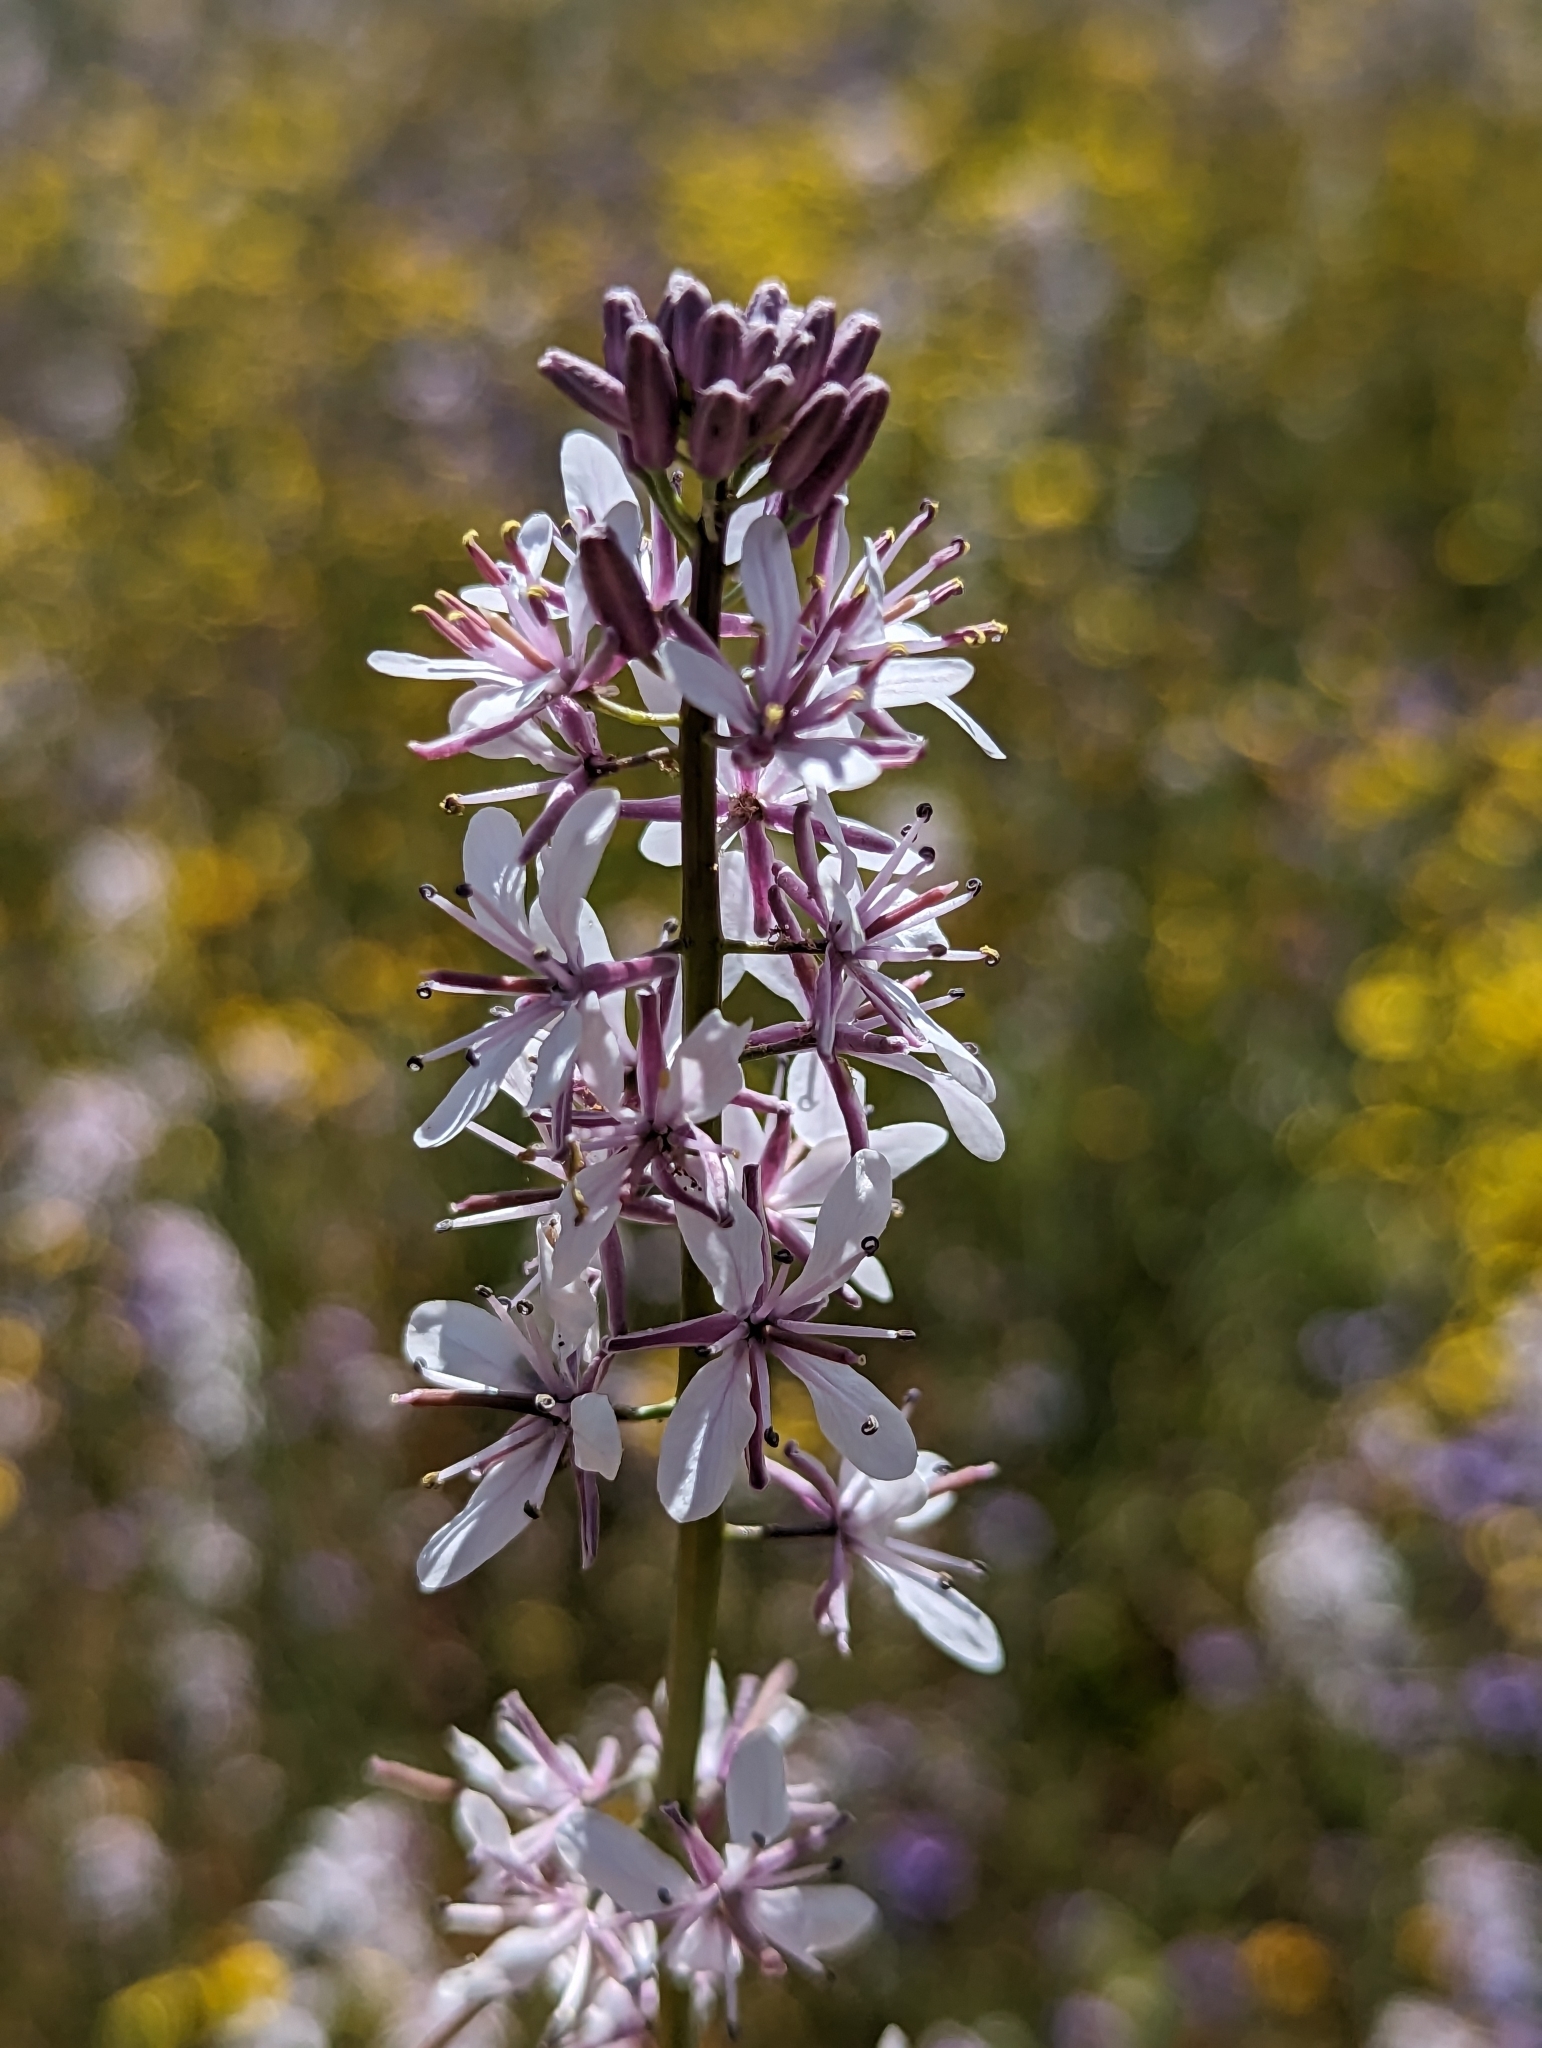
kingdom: Plantae
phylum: Tracheophyta
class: Magnoliopsida
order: Brassicales
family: Brassicaceae
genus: Streptanthus
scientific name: Streptanthus anceps
